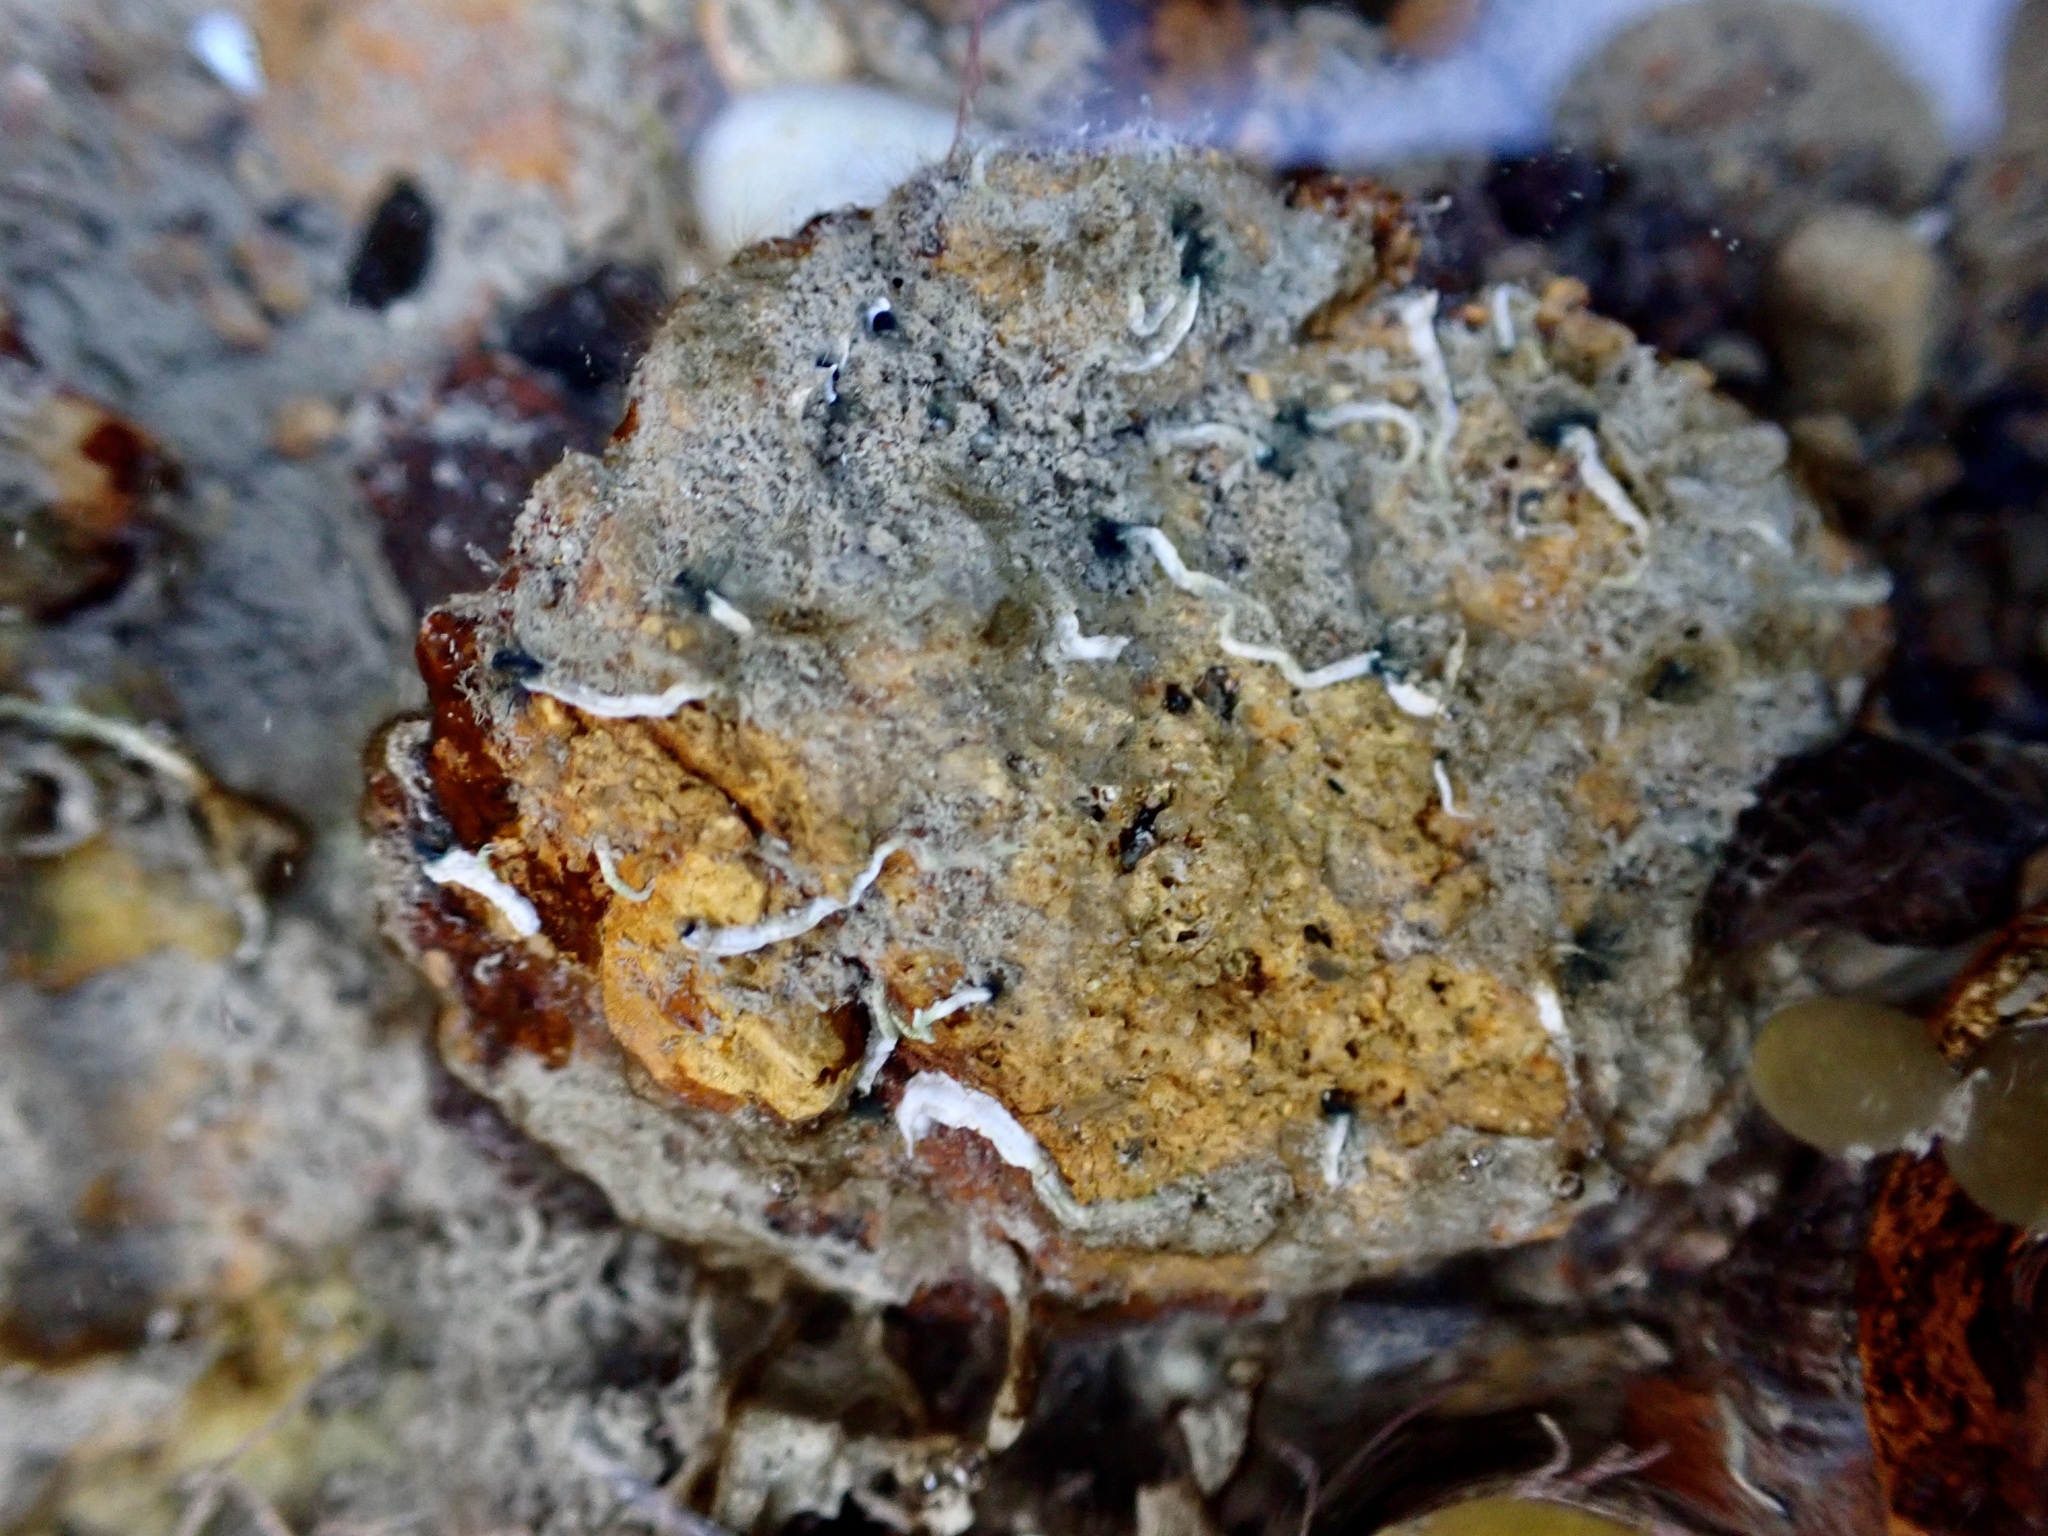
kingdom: Animalia
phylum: Annelida
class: Polychaeta
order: Sabellida
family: Serpulidae
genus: Spirobranchus
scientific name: Spirobranchus cariniferus
